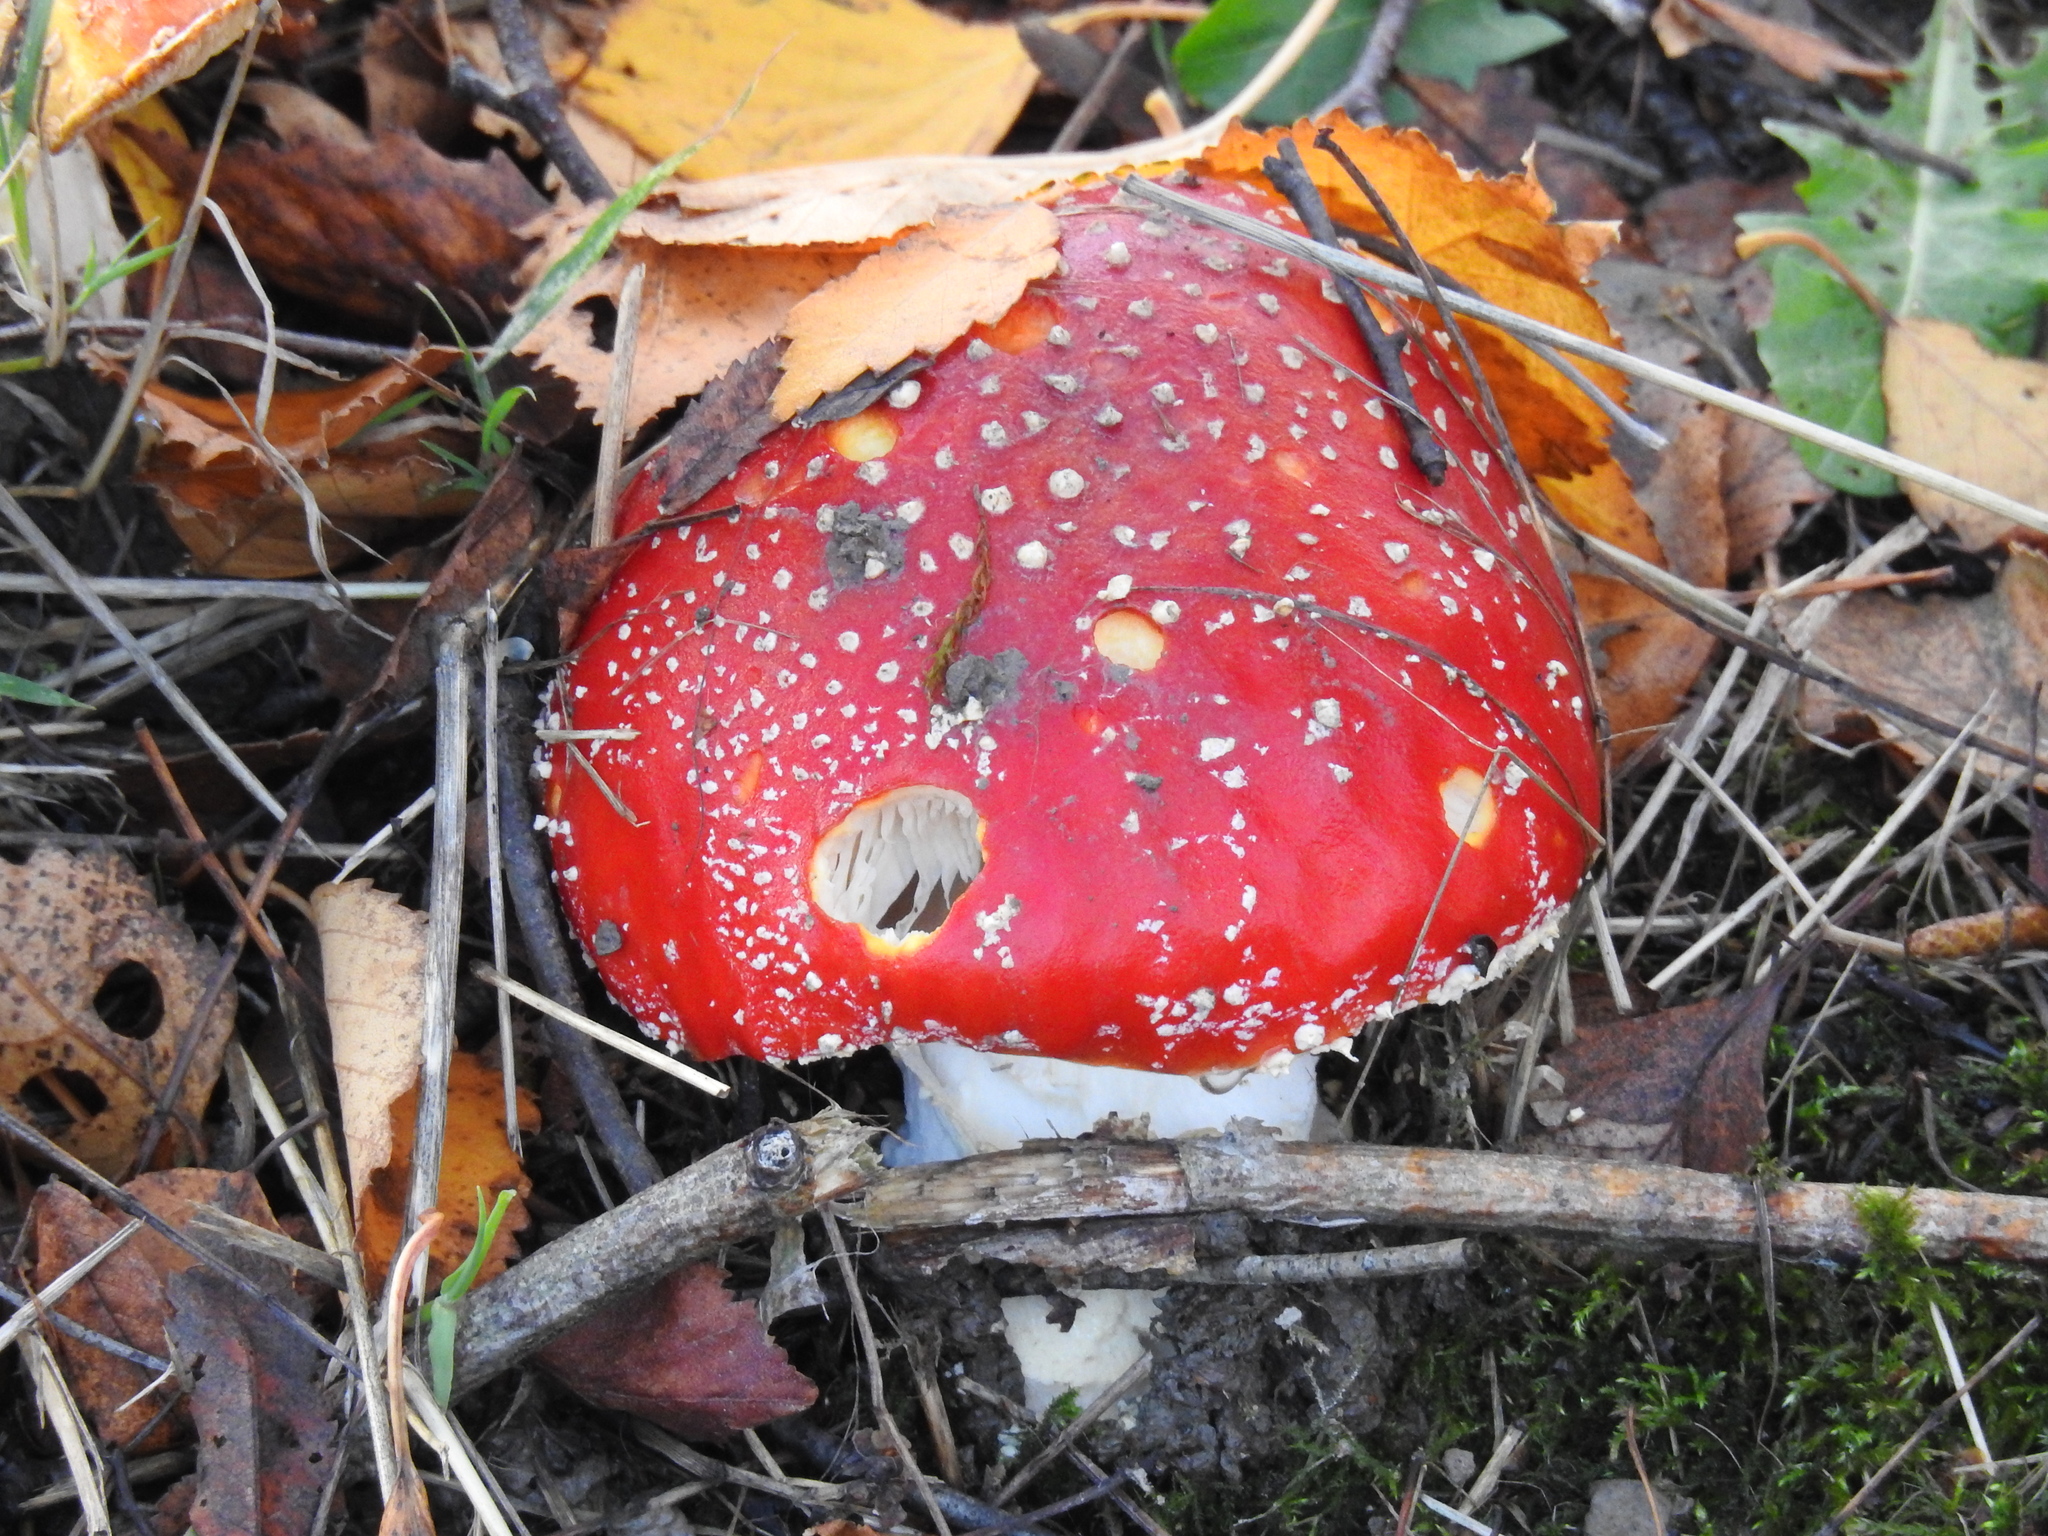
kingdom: Fungi
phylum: Basidiomycota
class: Agaricomycetes
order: Agaricales
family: Amanitaceae
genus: Amanita
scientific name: Amanita muscaria
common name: Fly agaric
